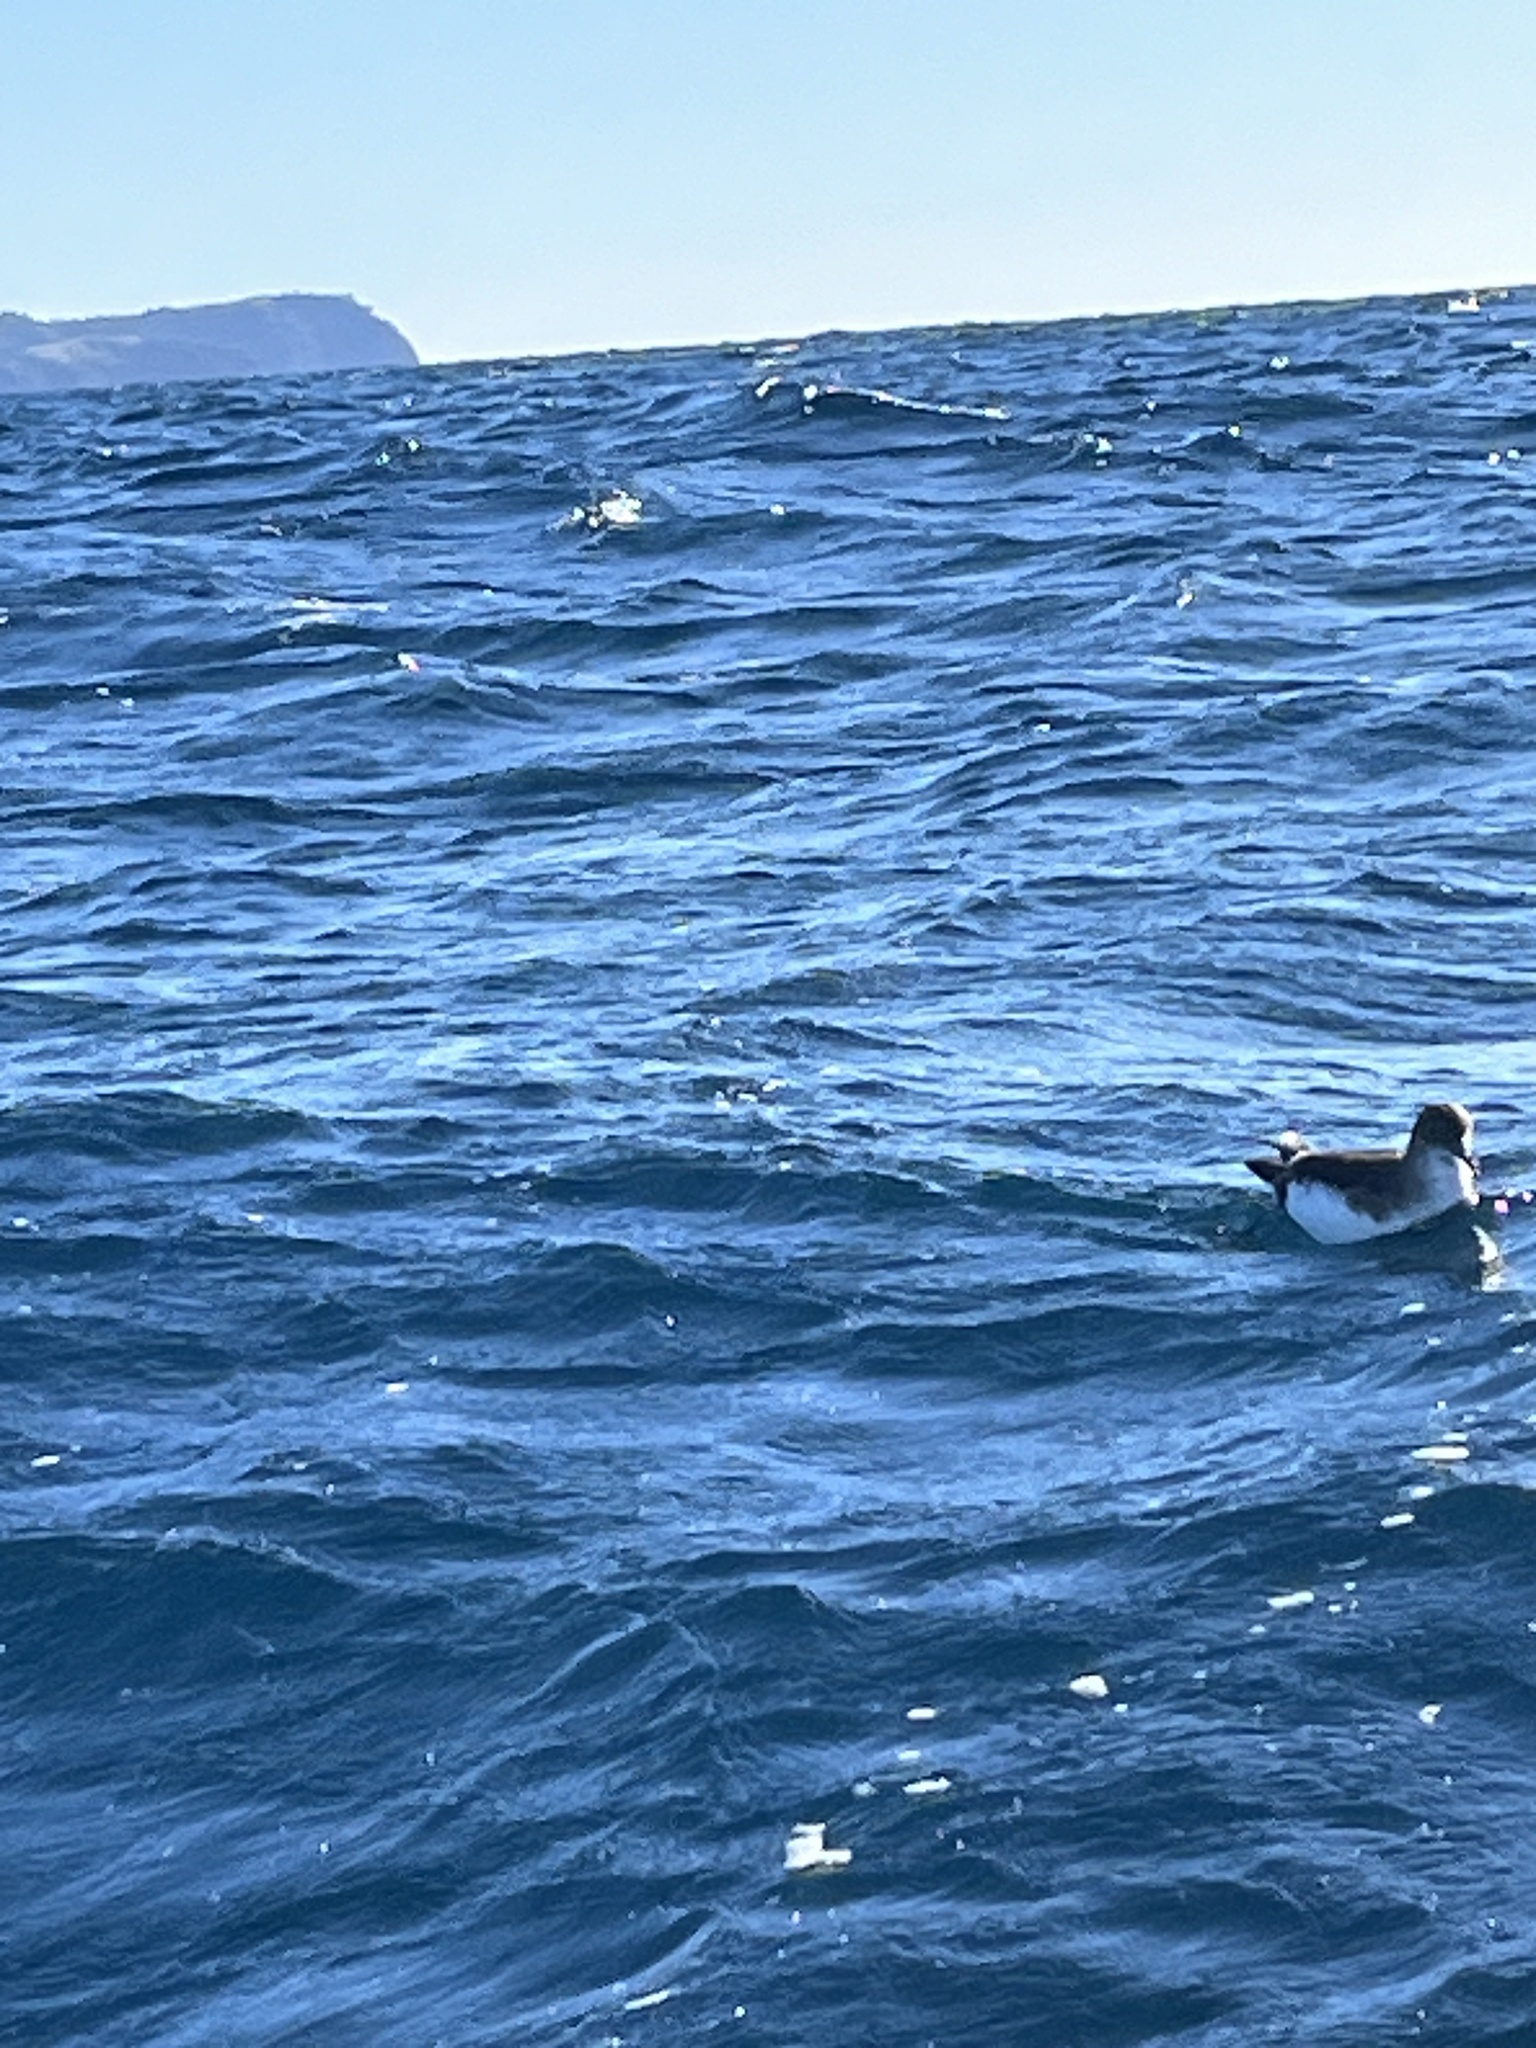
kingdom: Animalia
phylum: Chordata
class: Aves
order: Procellariiformes
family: Procellariidae
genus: Puffinus
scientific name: Puffinus gavia
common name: Fluttering shearwater
